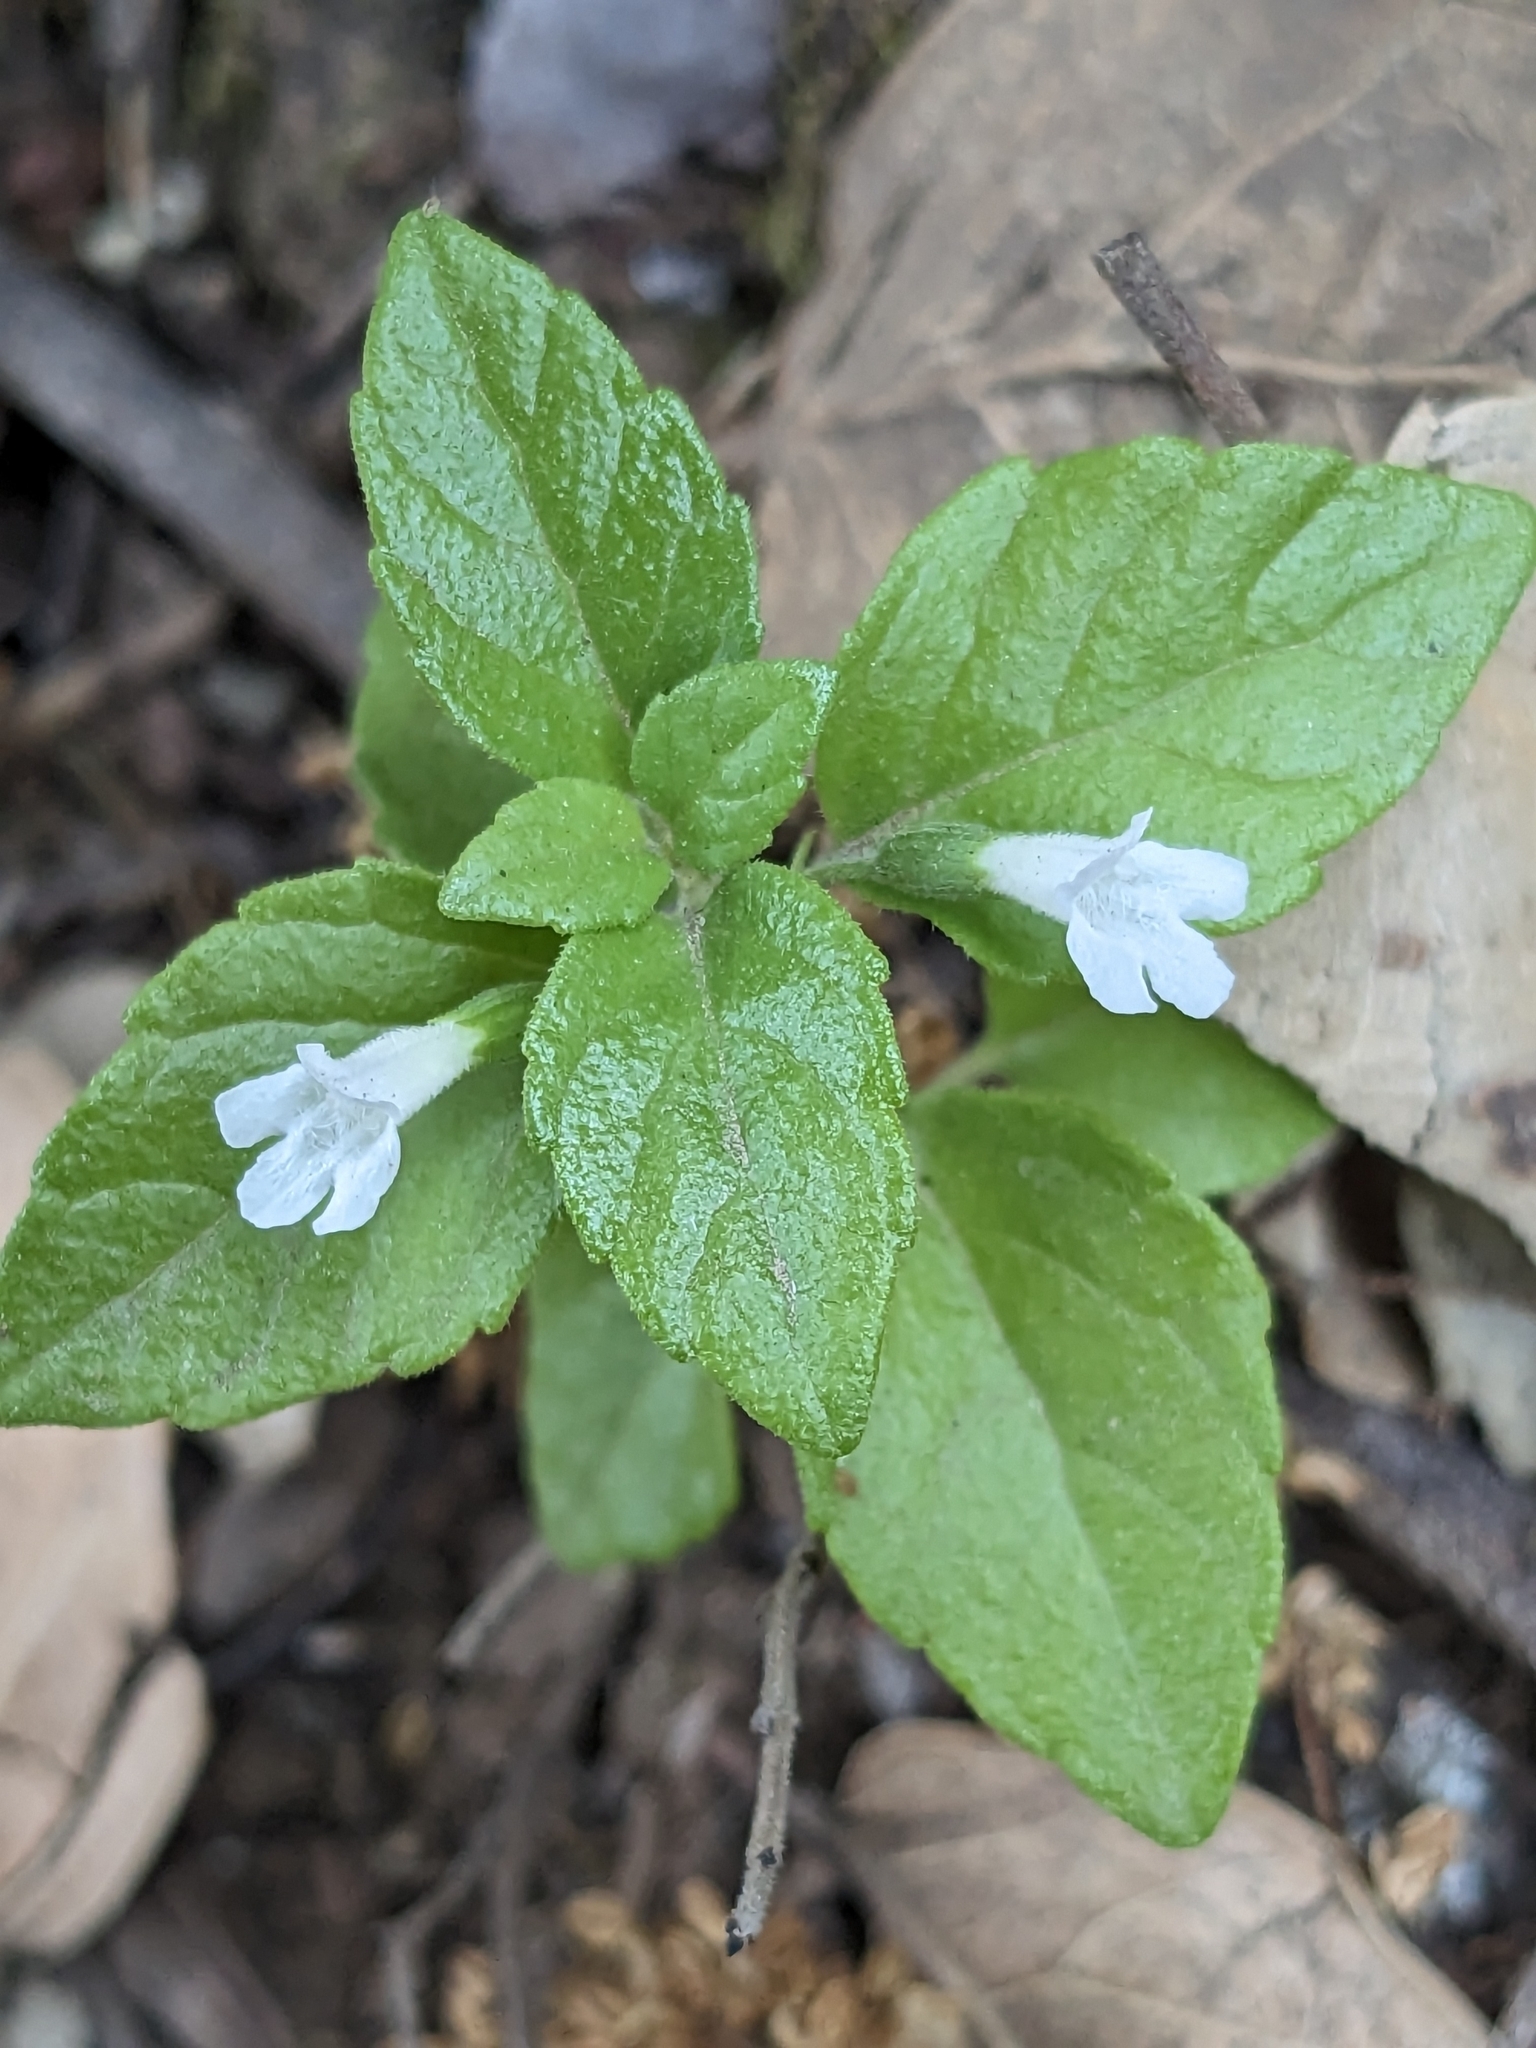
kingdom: Plantae
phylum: Tracheophyta
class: Magnoliopsida
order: Lamiales
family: Lamiaceae
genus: Micromeria
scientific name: Micromeria douglasii
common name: Yerba buena
